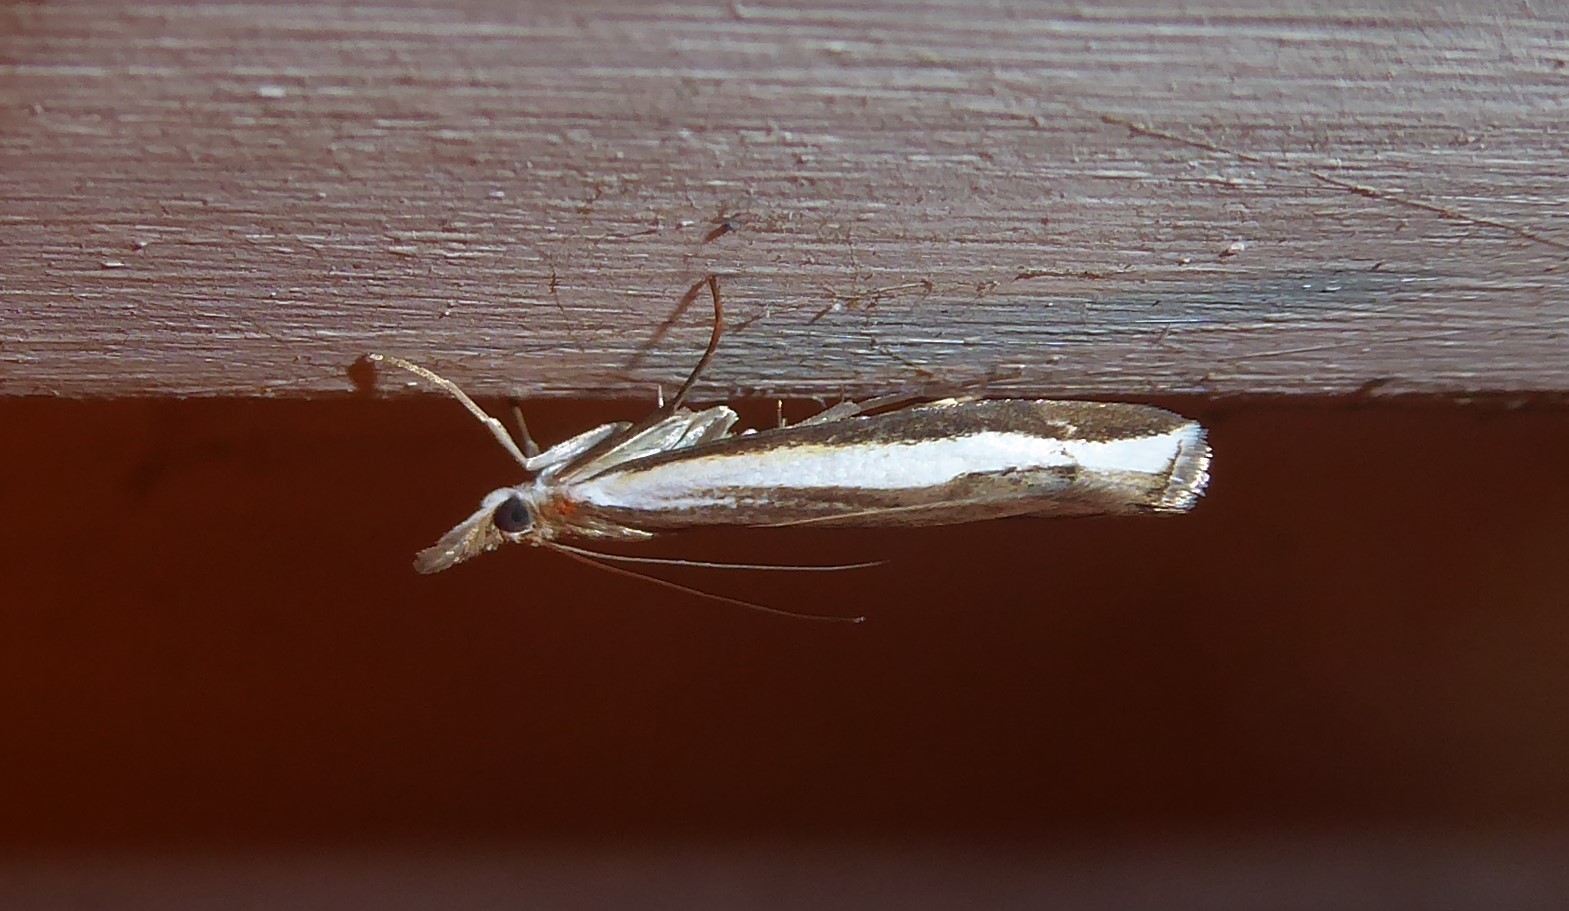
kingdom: Animalia
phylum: Arthropoda
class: Insecta
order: Lepidoptera
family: Crambidae
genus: Orocrambus
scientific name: Orocrambus flexuosellus
